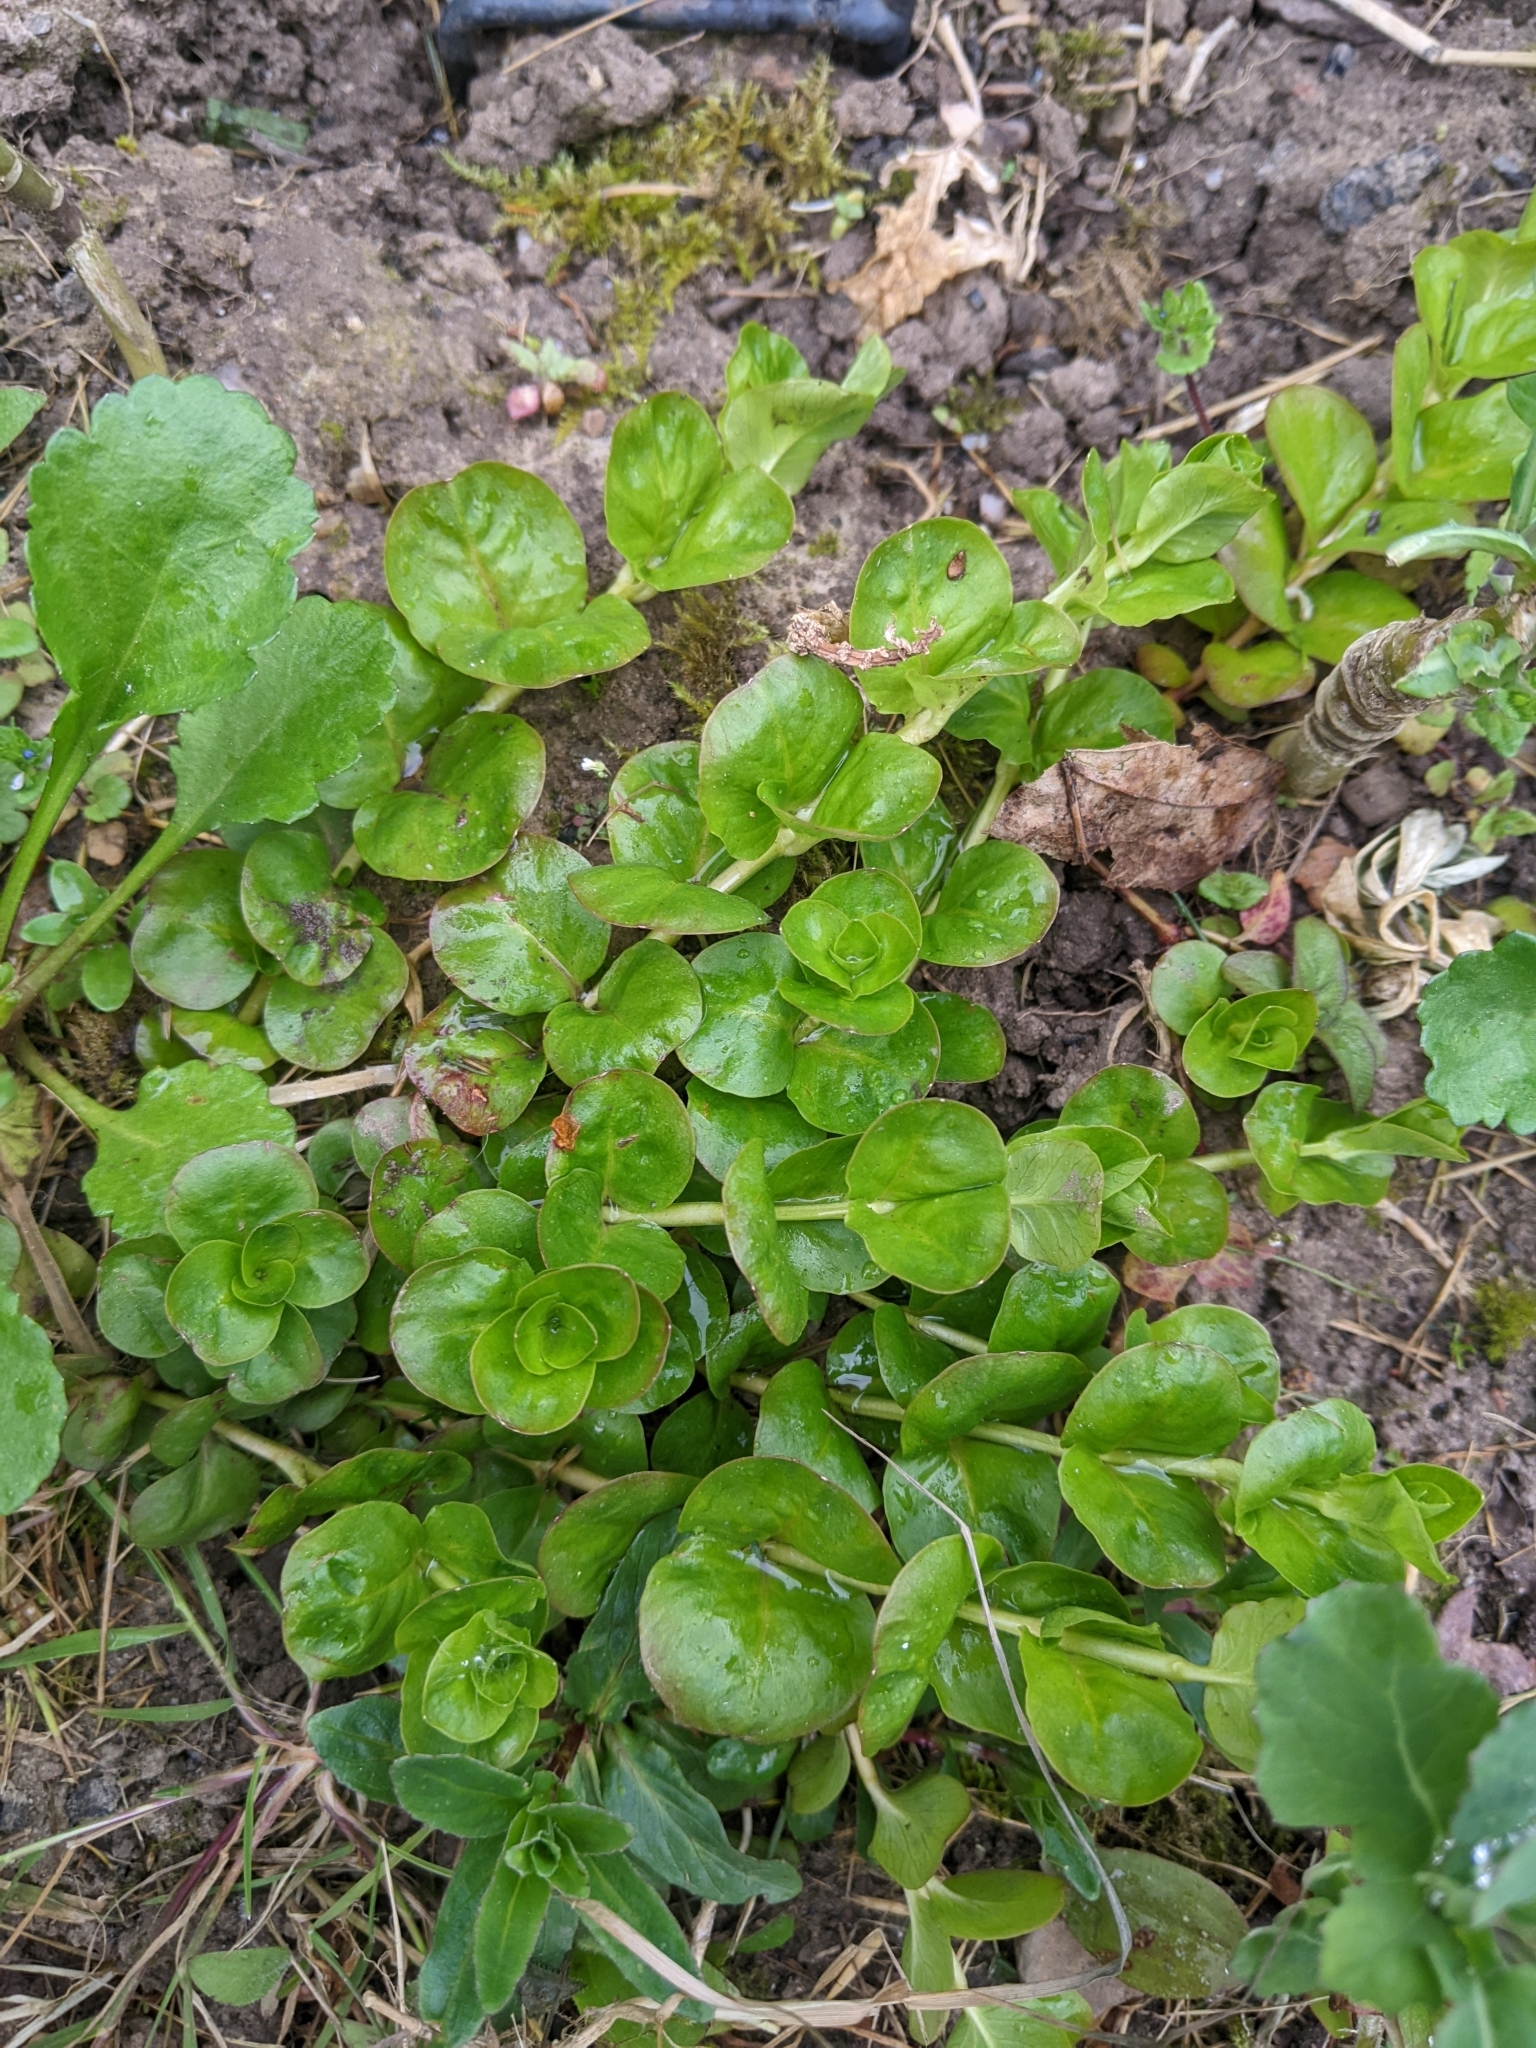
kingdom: Plantae
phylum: Tracheophyta
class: Magnoliopsida
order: Ericales
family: Primulaceae
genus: Lysimachia
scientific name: Lysimachia nummularia
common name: Moneywort
